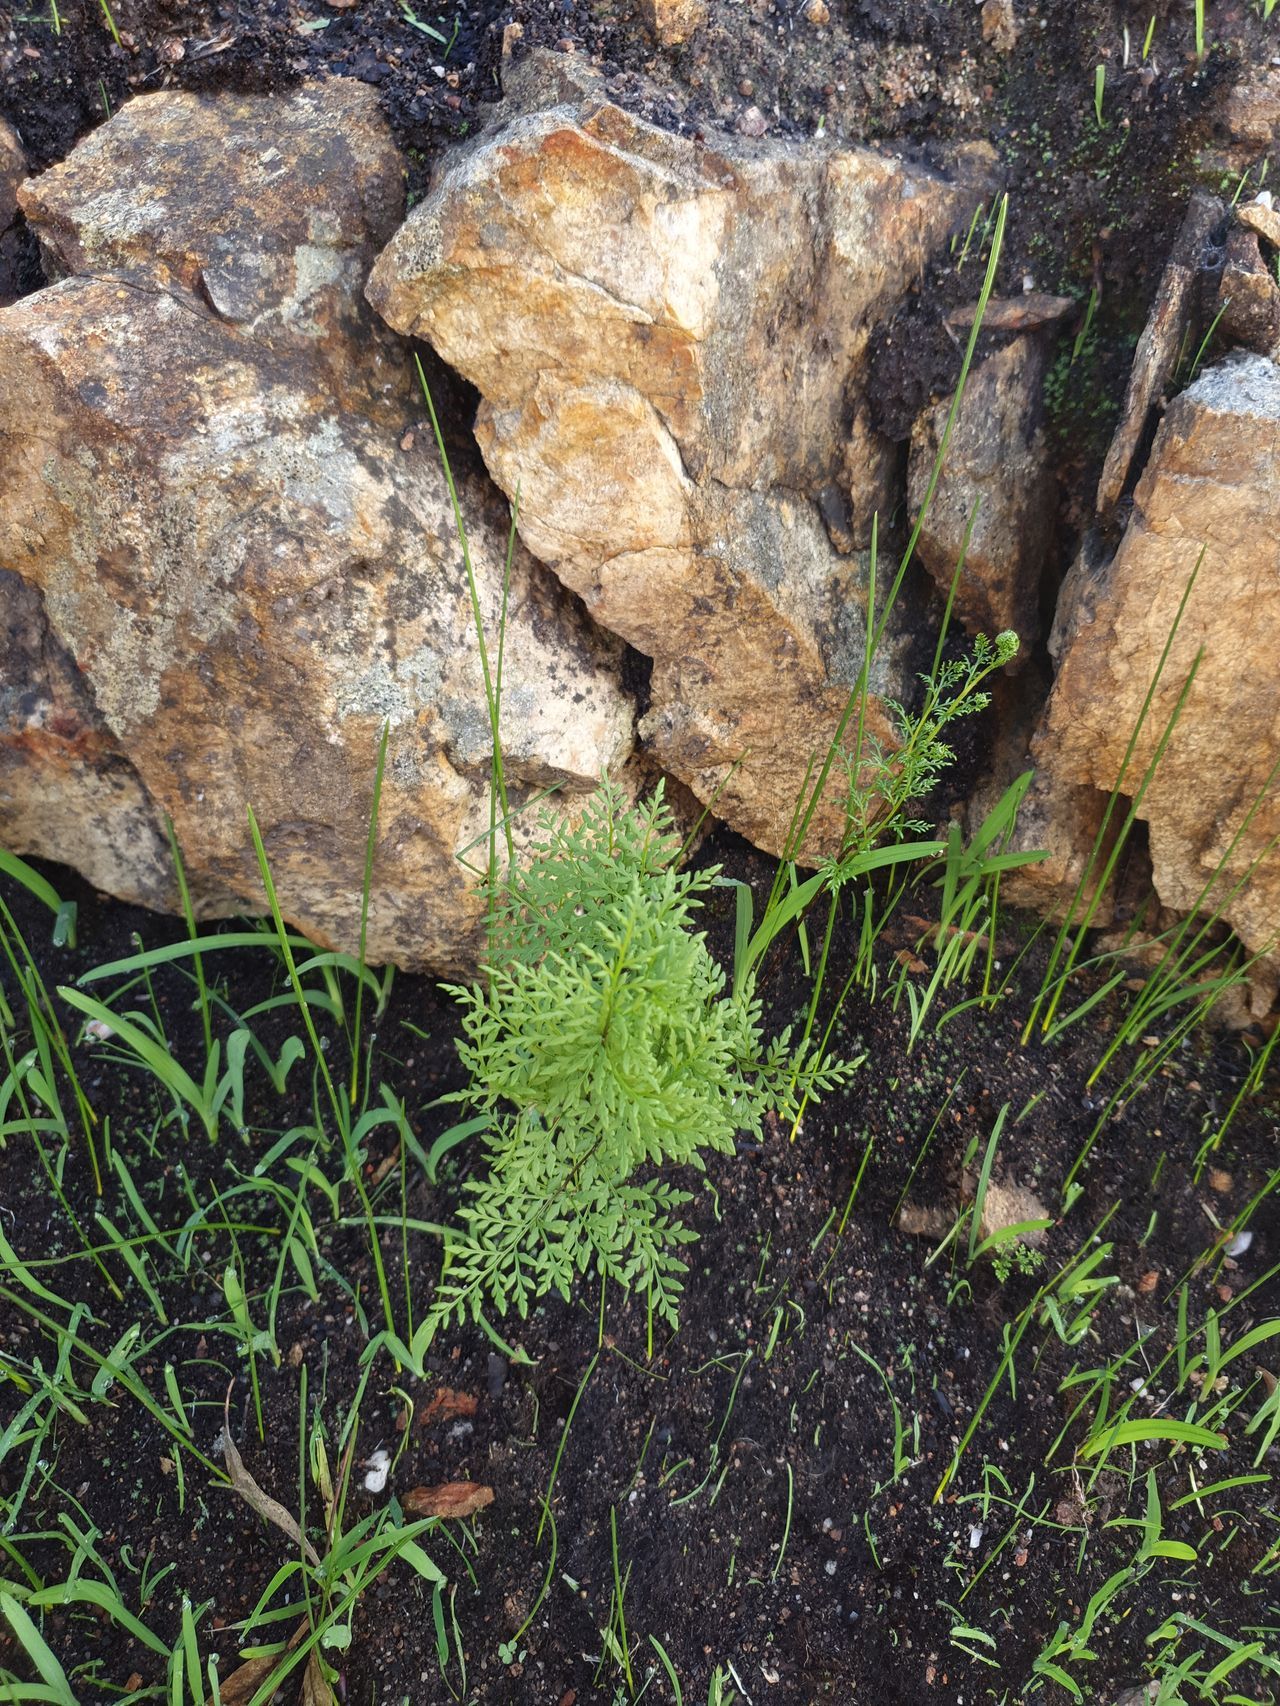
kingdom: Plantae
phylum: Tracheophyta
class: Polypodiopsida
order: Polypodiales
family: Pteridaceae
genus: Cheilanthes
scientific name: Cheilanthes austrotenuifolia
